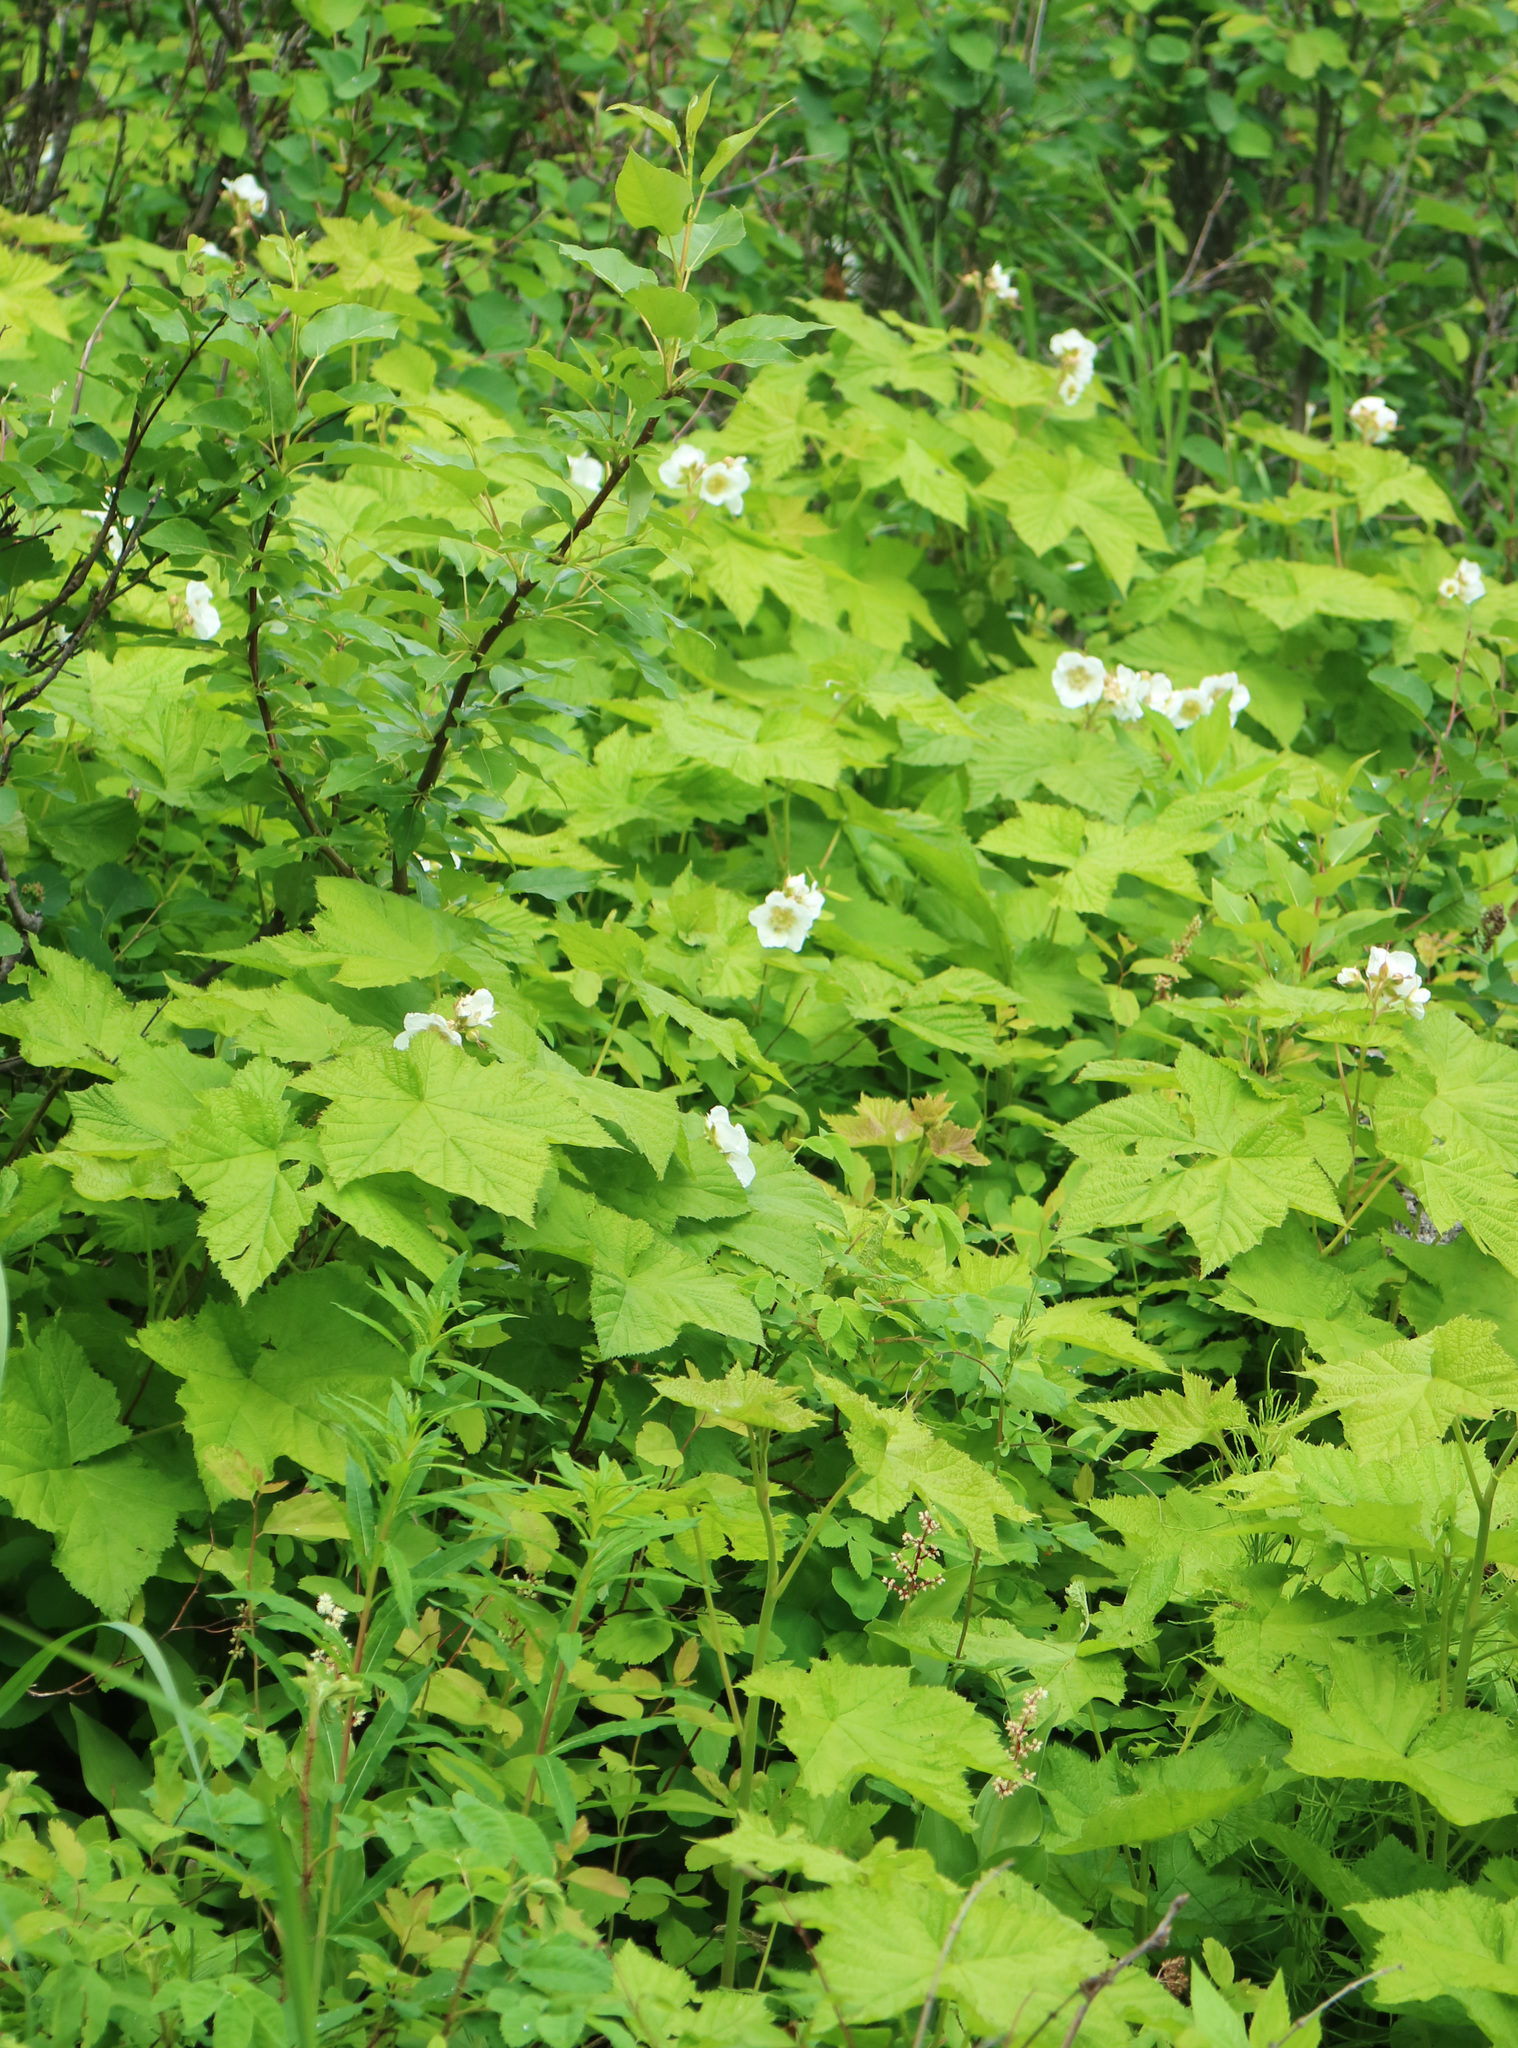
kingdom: Plantae
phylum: Tracheophyta
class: Magnoliopsida
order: Rosales
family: Rosaceae
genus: Rubus
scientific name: Rubus parviflorus
